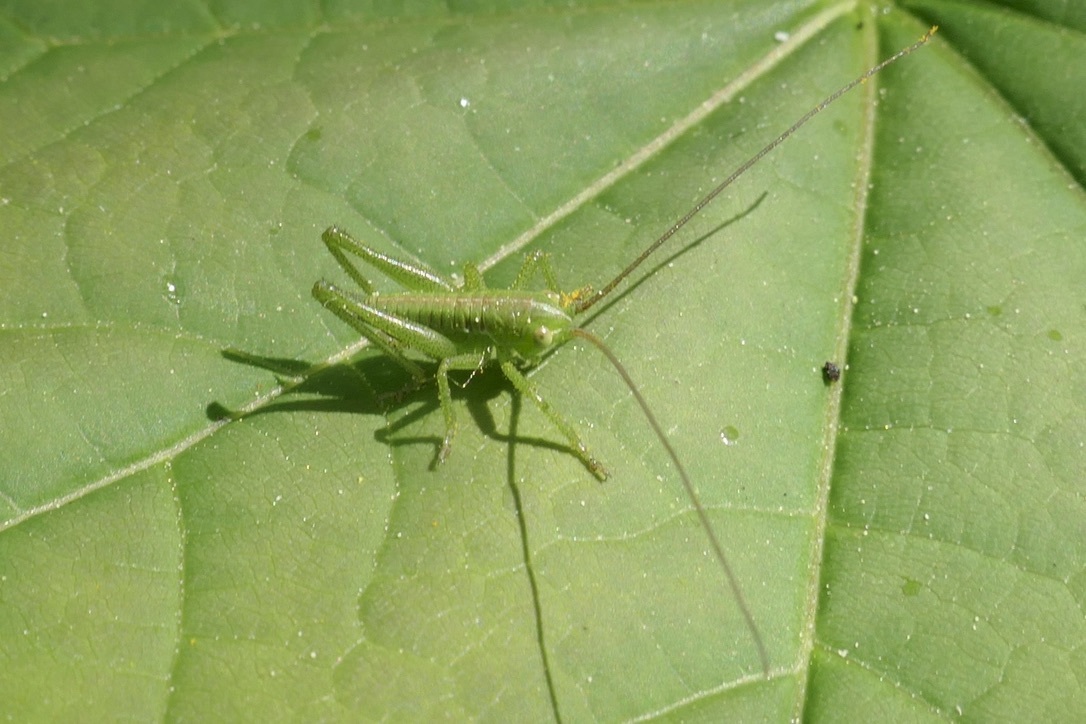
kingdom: Animalia
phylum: Arthropoda
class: Insecta
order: Orthoptera
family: Tettigoniidae
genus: Tettigonia
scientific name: Tettigonia viridissima
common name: Great green bush-cricket
